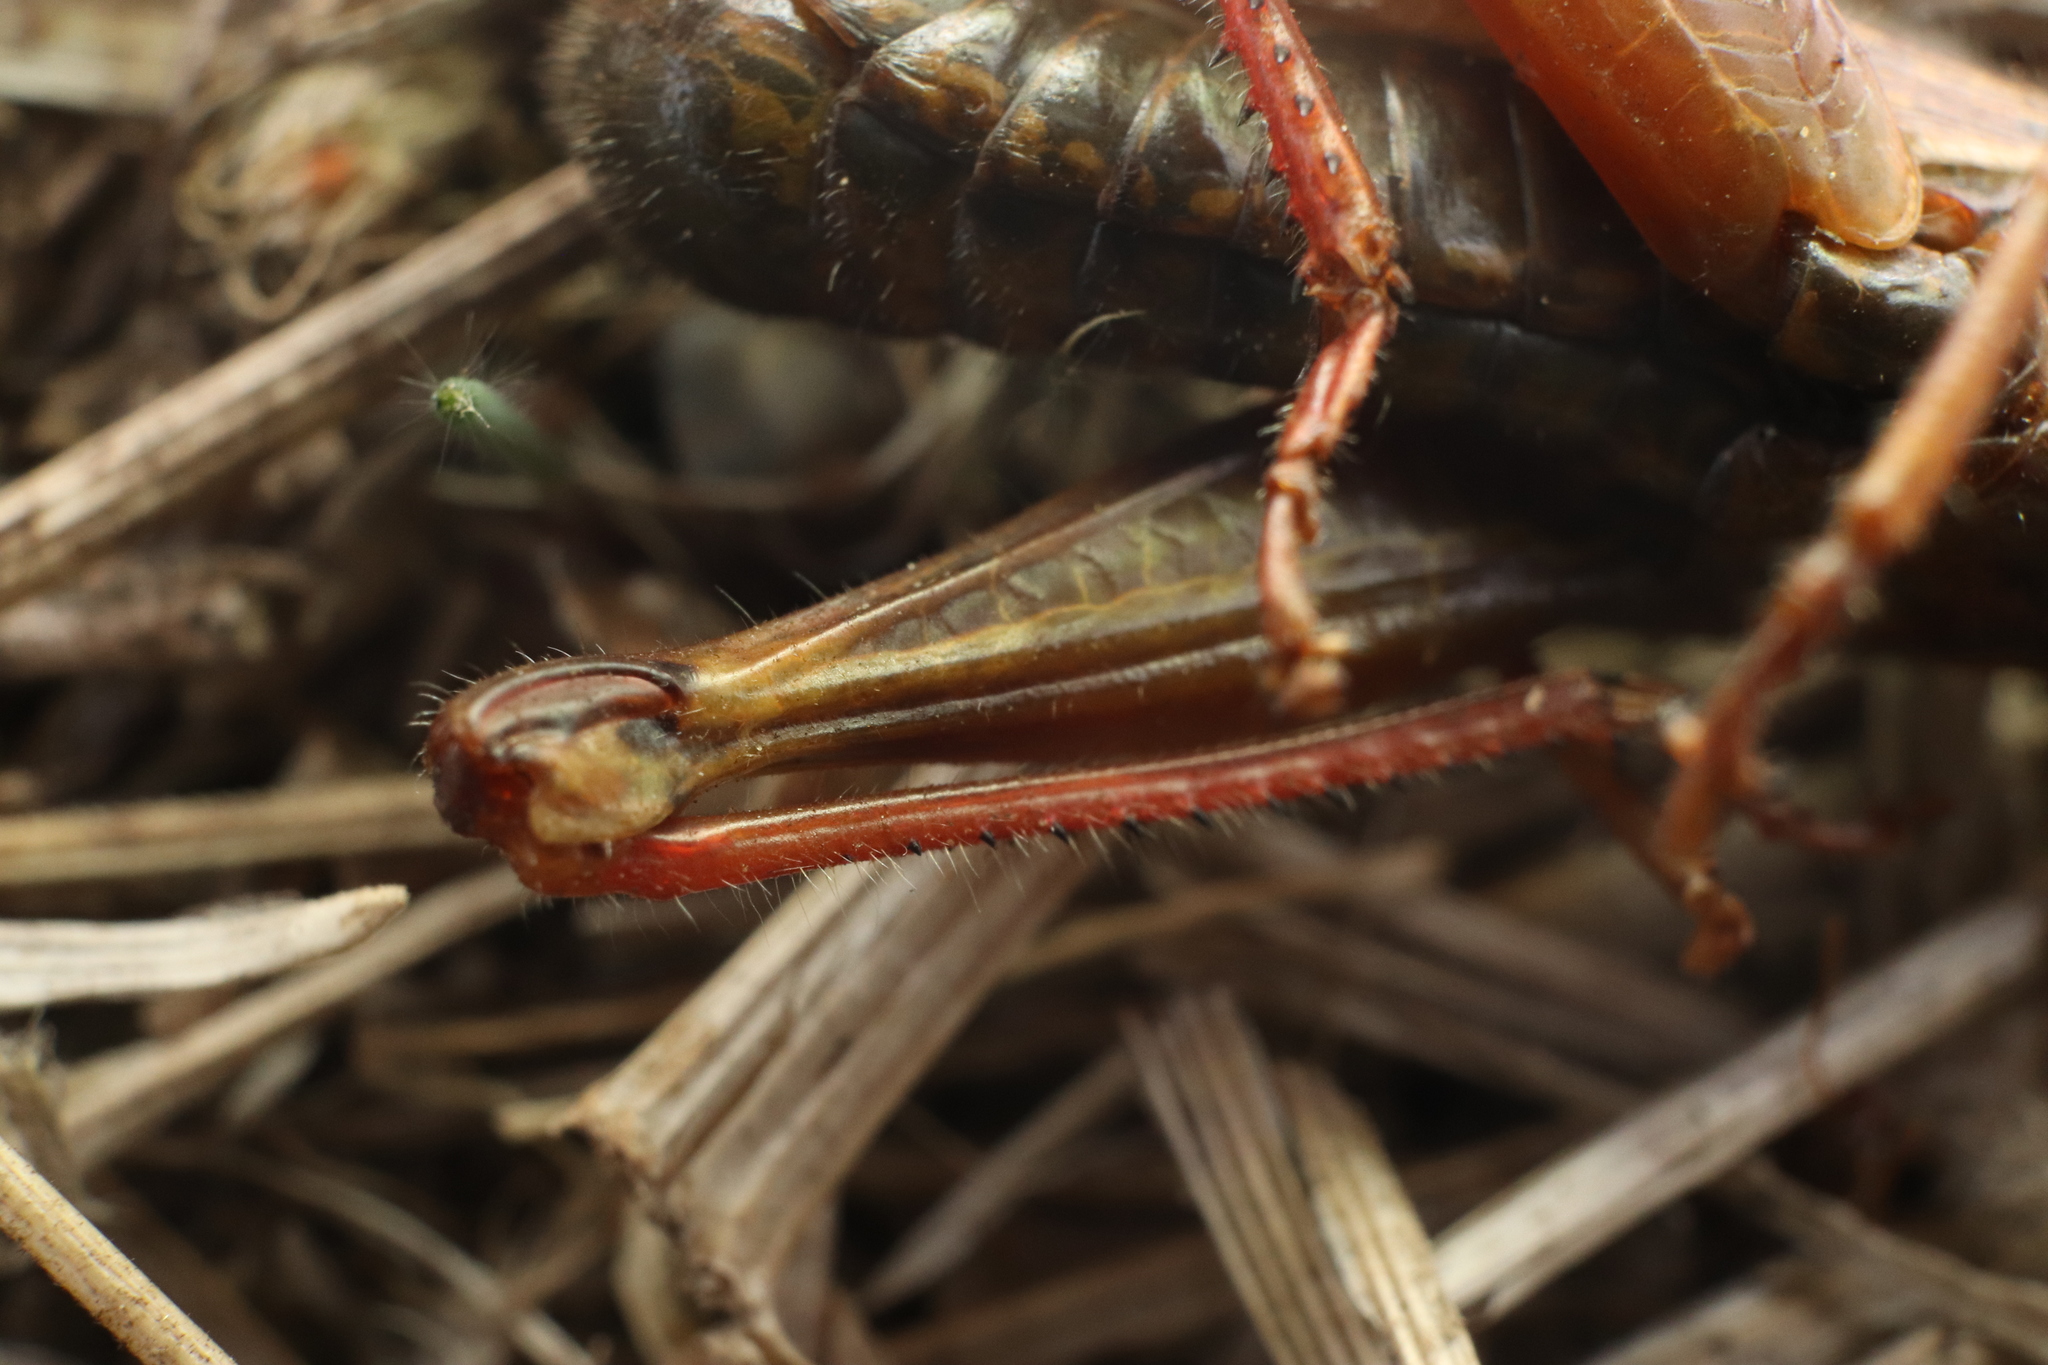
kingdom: Animalia
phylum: Arthropoda
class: Insecta
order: Orthoptera
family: Acrididae
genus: Melanoplus
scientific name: Melanoplus femurrubrum
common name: Red-legged grasshopper
